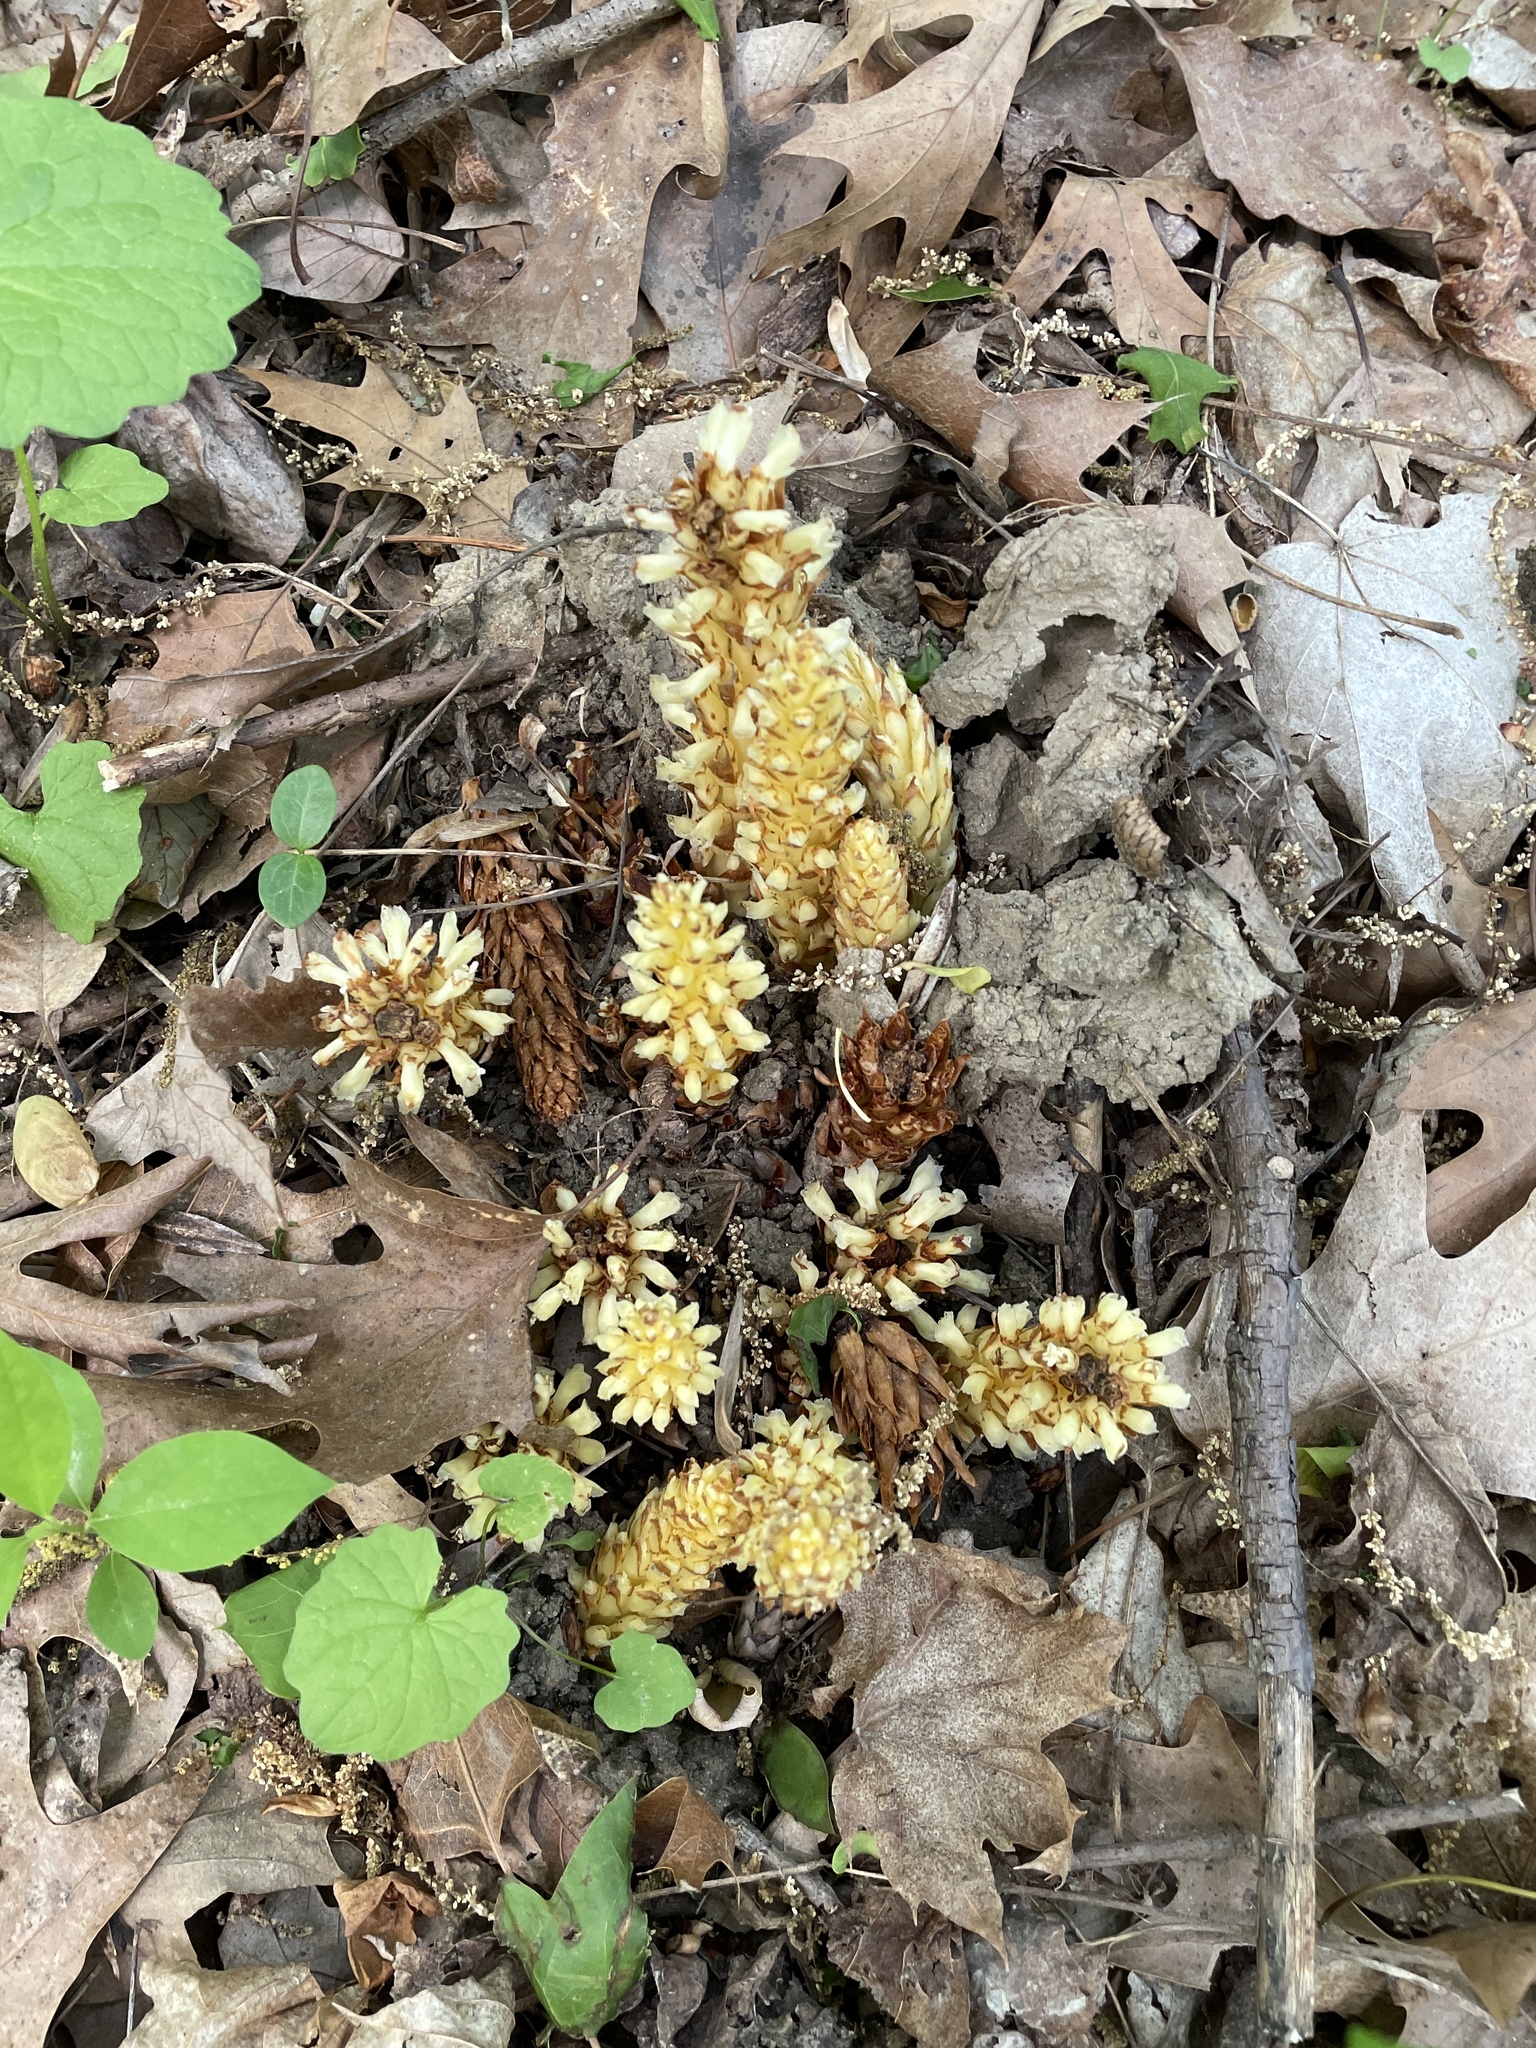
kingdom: Plantae
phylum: Tracheophyta
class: Magnoliopsida
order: Lamiales
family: Orobanchaceae
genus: Conopholis
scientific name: Conopholis americana
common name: American cancer-root
